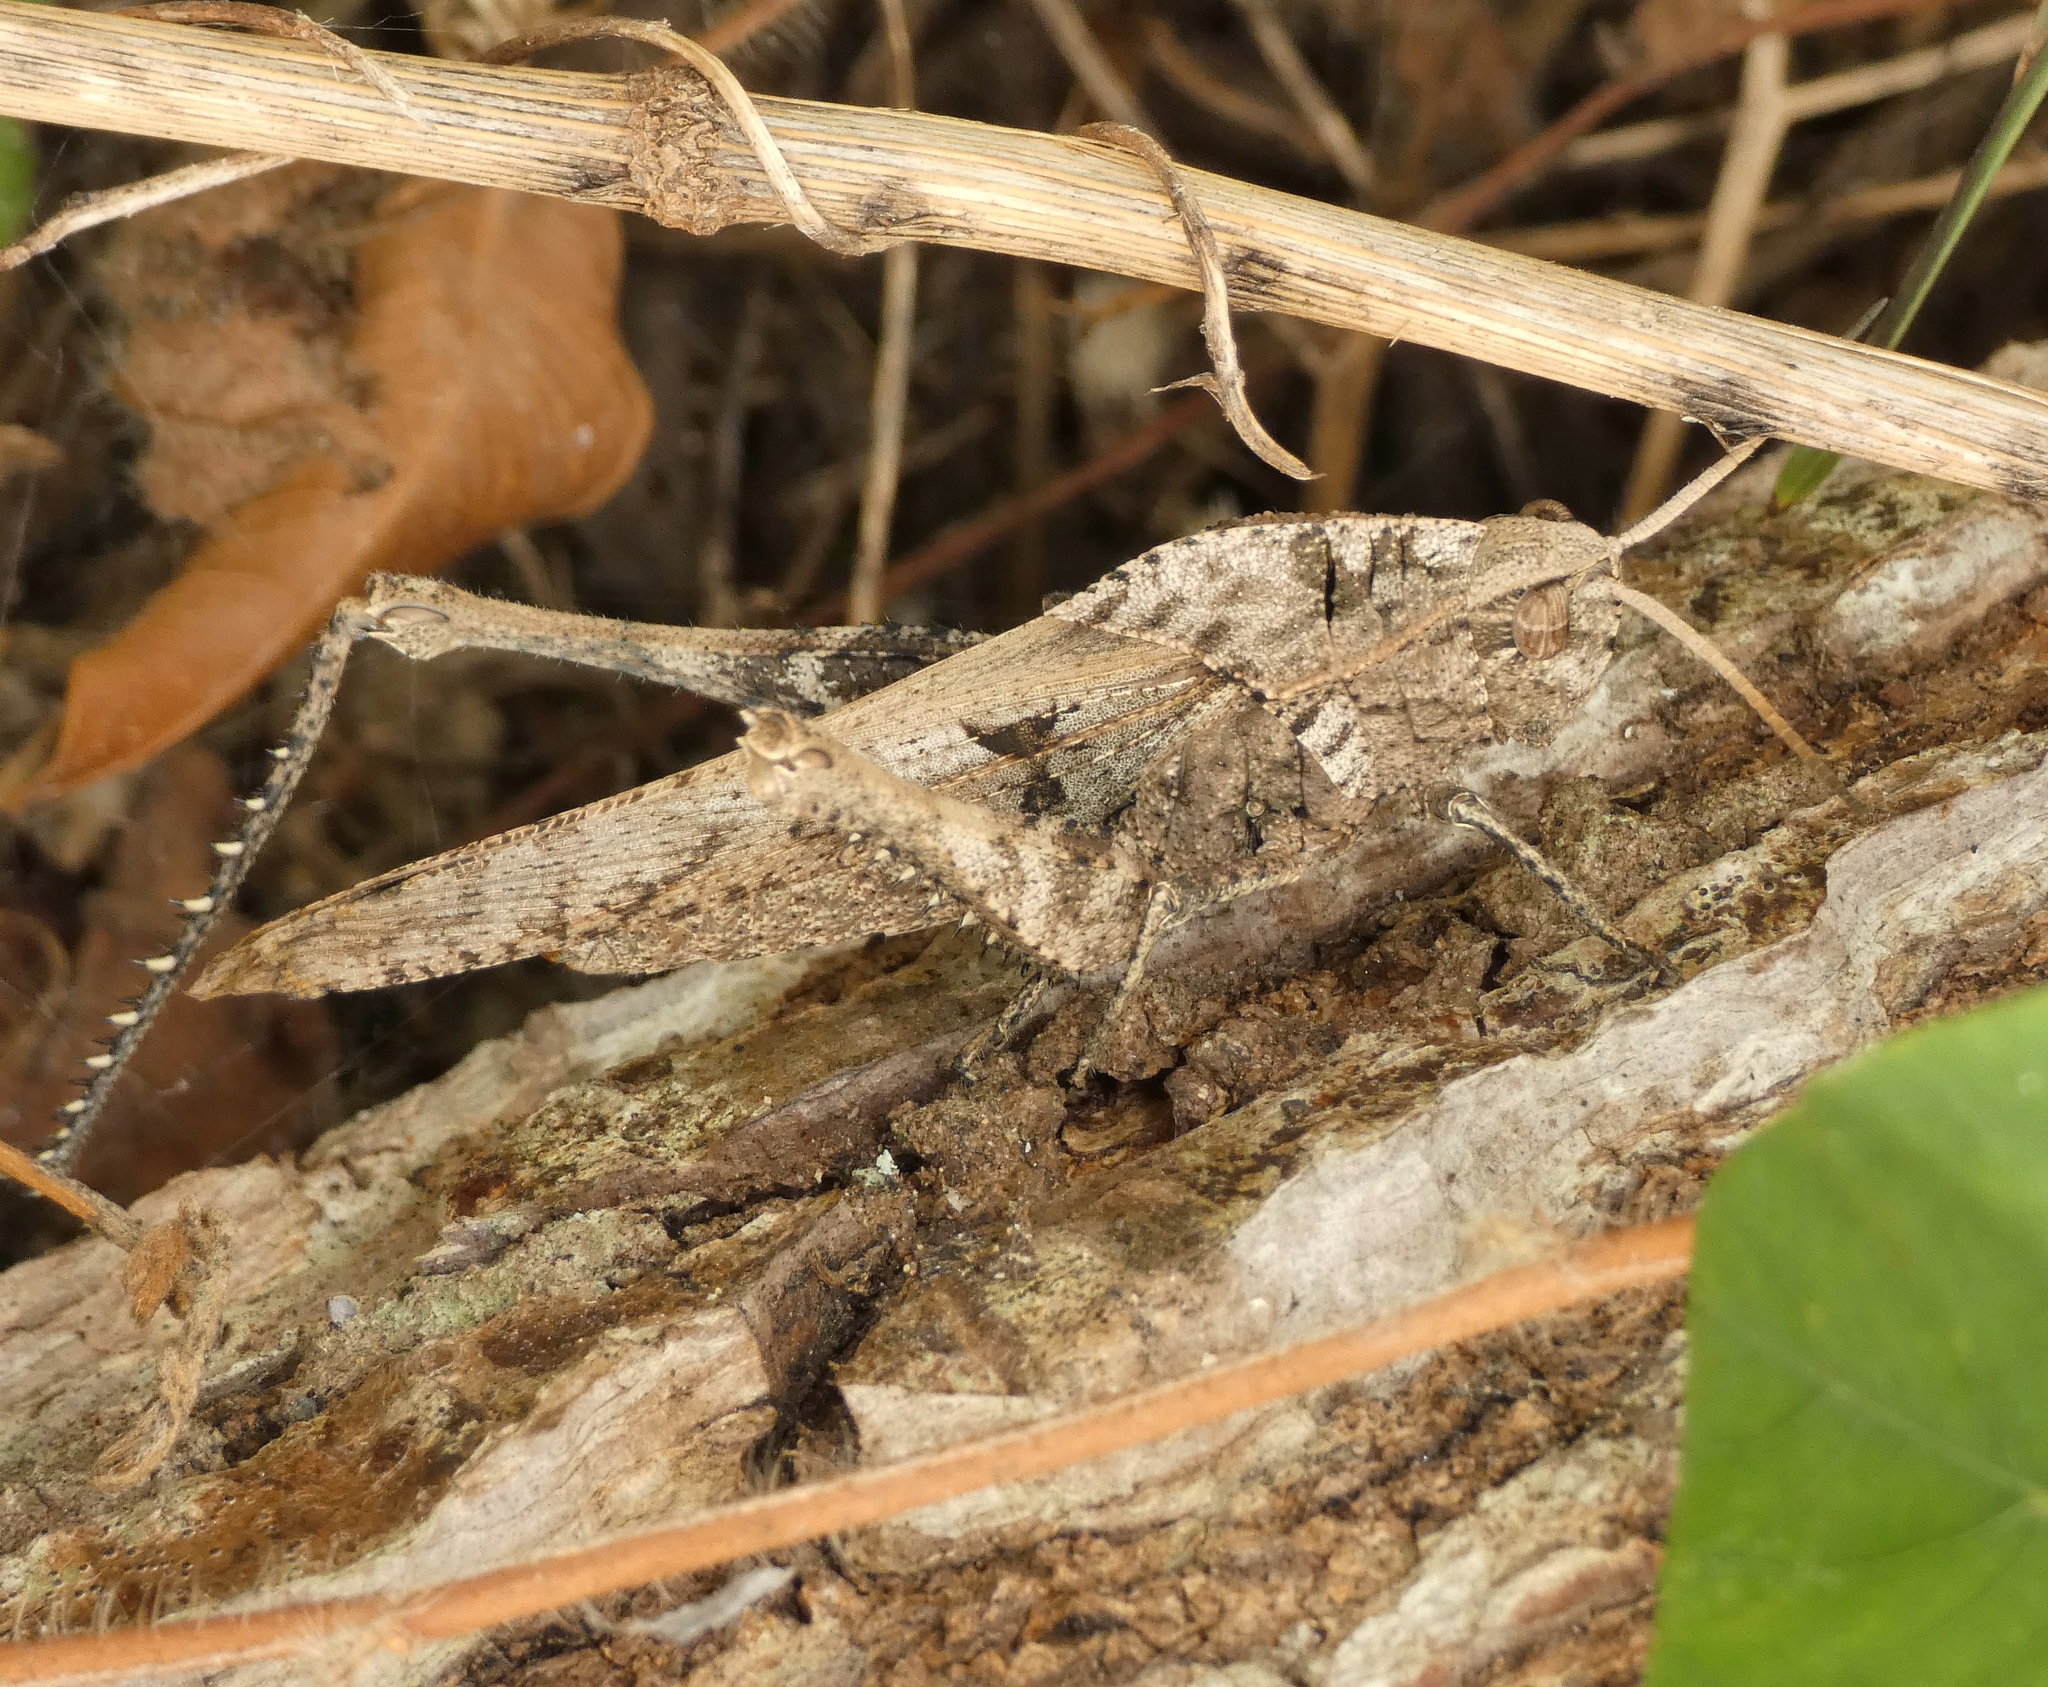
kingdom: Animalia
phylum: Arthropoda
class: Insecta
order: Orthoptera
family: Romaleidae
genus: Xyleus
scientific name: Xyleus discoideus
